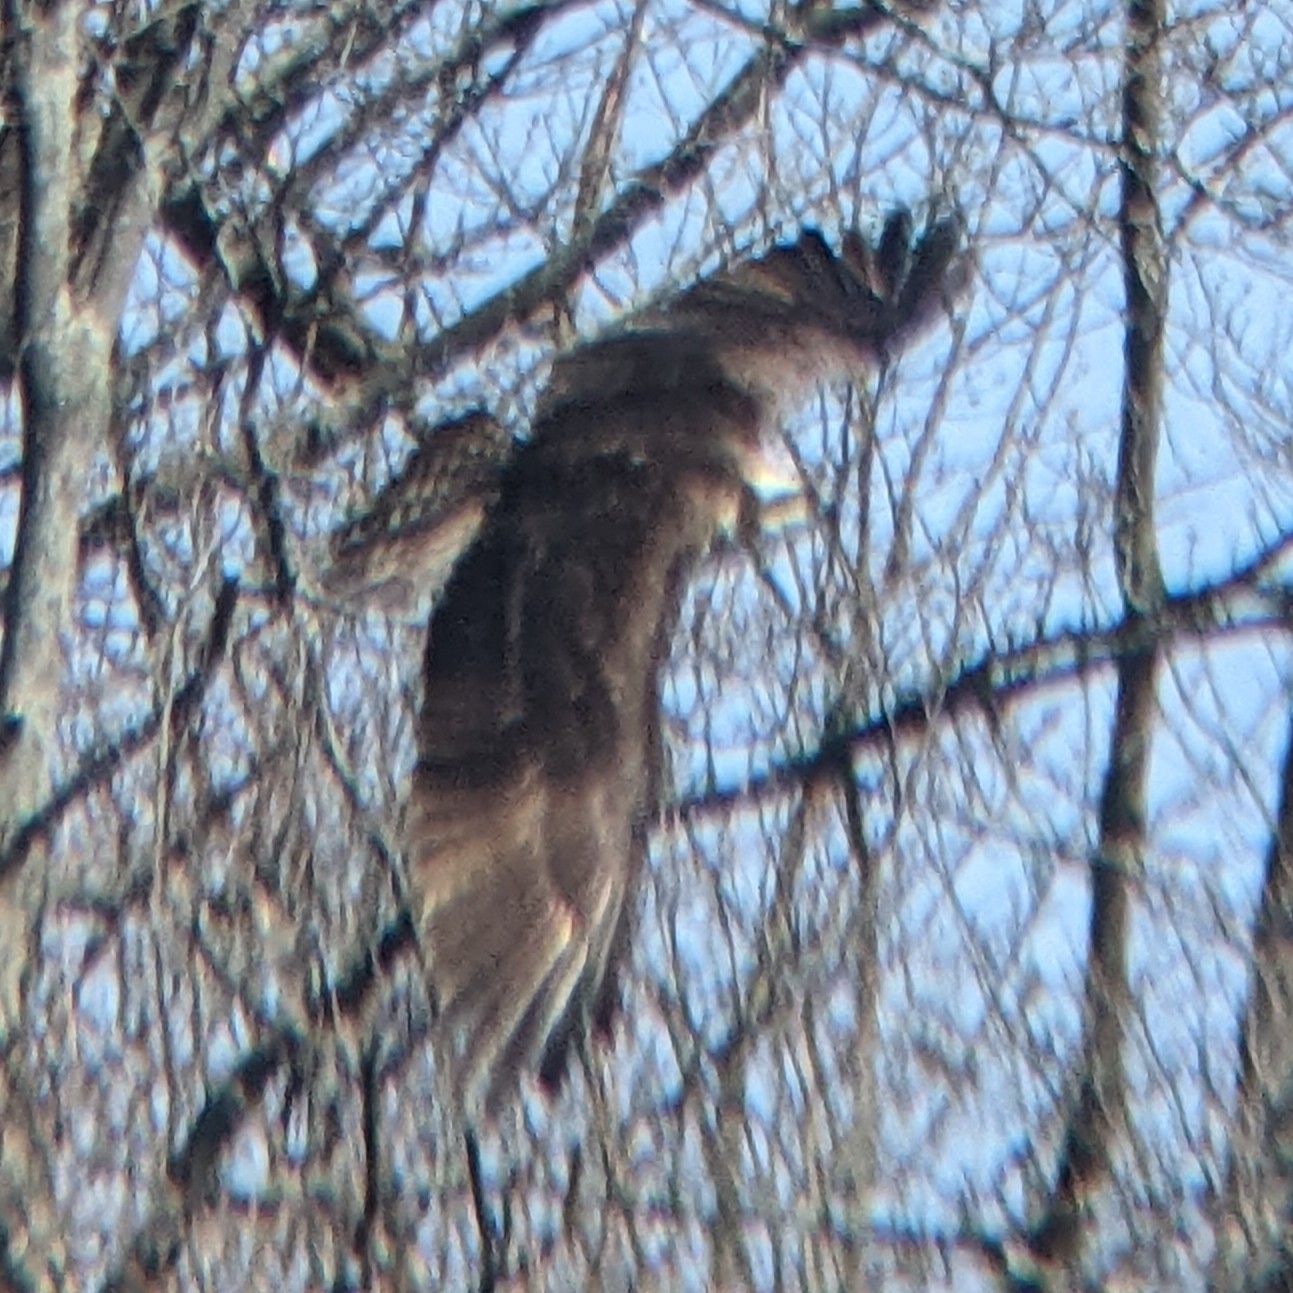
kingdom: Animalia
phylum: Chordata
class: Aves
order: Accipitriformes
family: Pandionidae
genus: Pandion
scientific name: Pandion haliaetus
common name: Osprey
